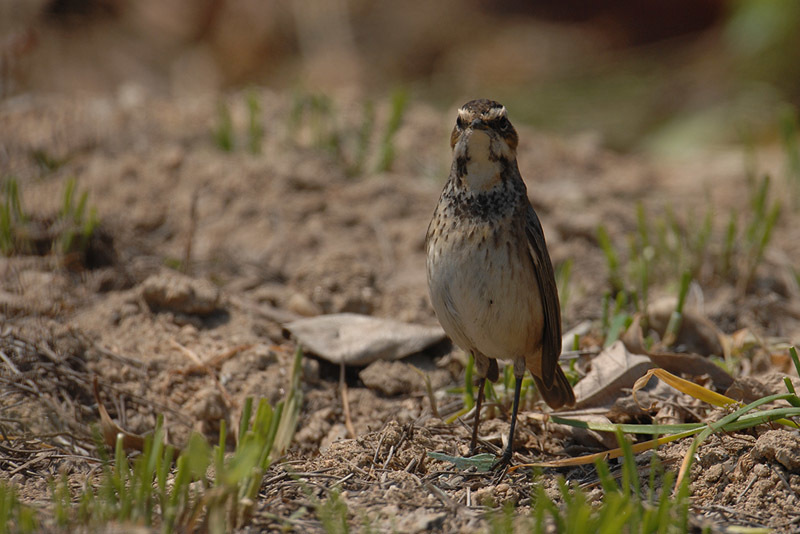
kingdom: Animalia
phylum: Chordata
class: Aves
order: Passeriformes
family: Muscicapidae
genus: Luscinia
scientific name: Luscinia svecica
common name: Bluethroat
